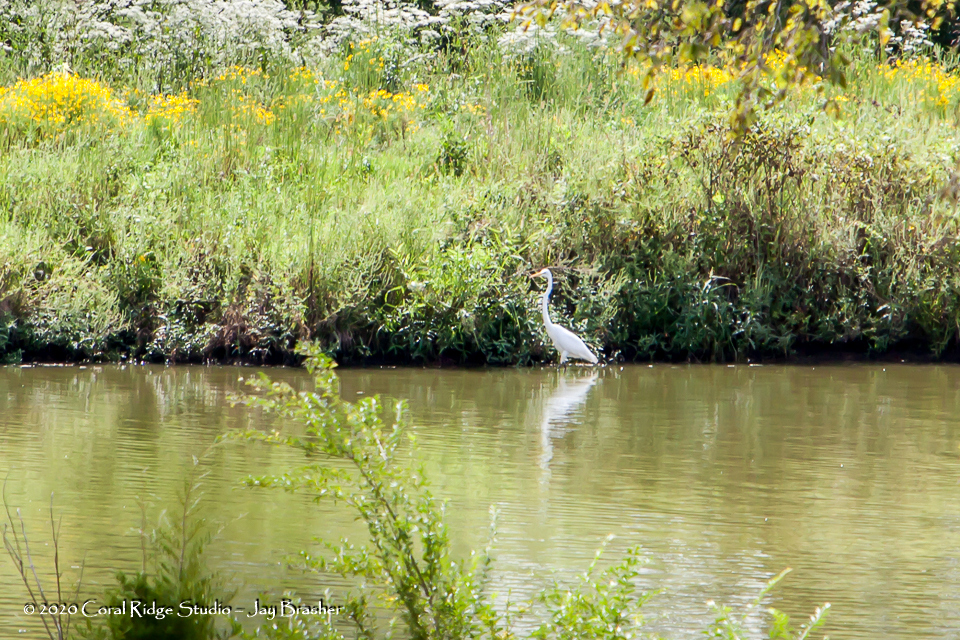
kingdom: Animalia
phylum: Chordata
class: Aves
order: Pelecaniformes
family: Ardeidae
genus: Ardea
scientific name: Ardea alba
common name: Great egret
